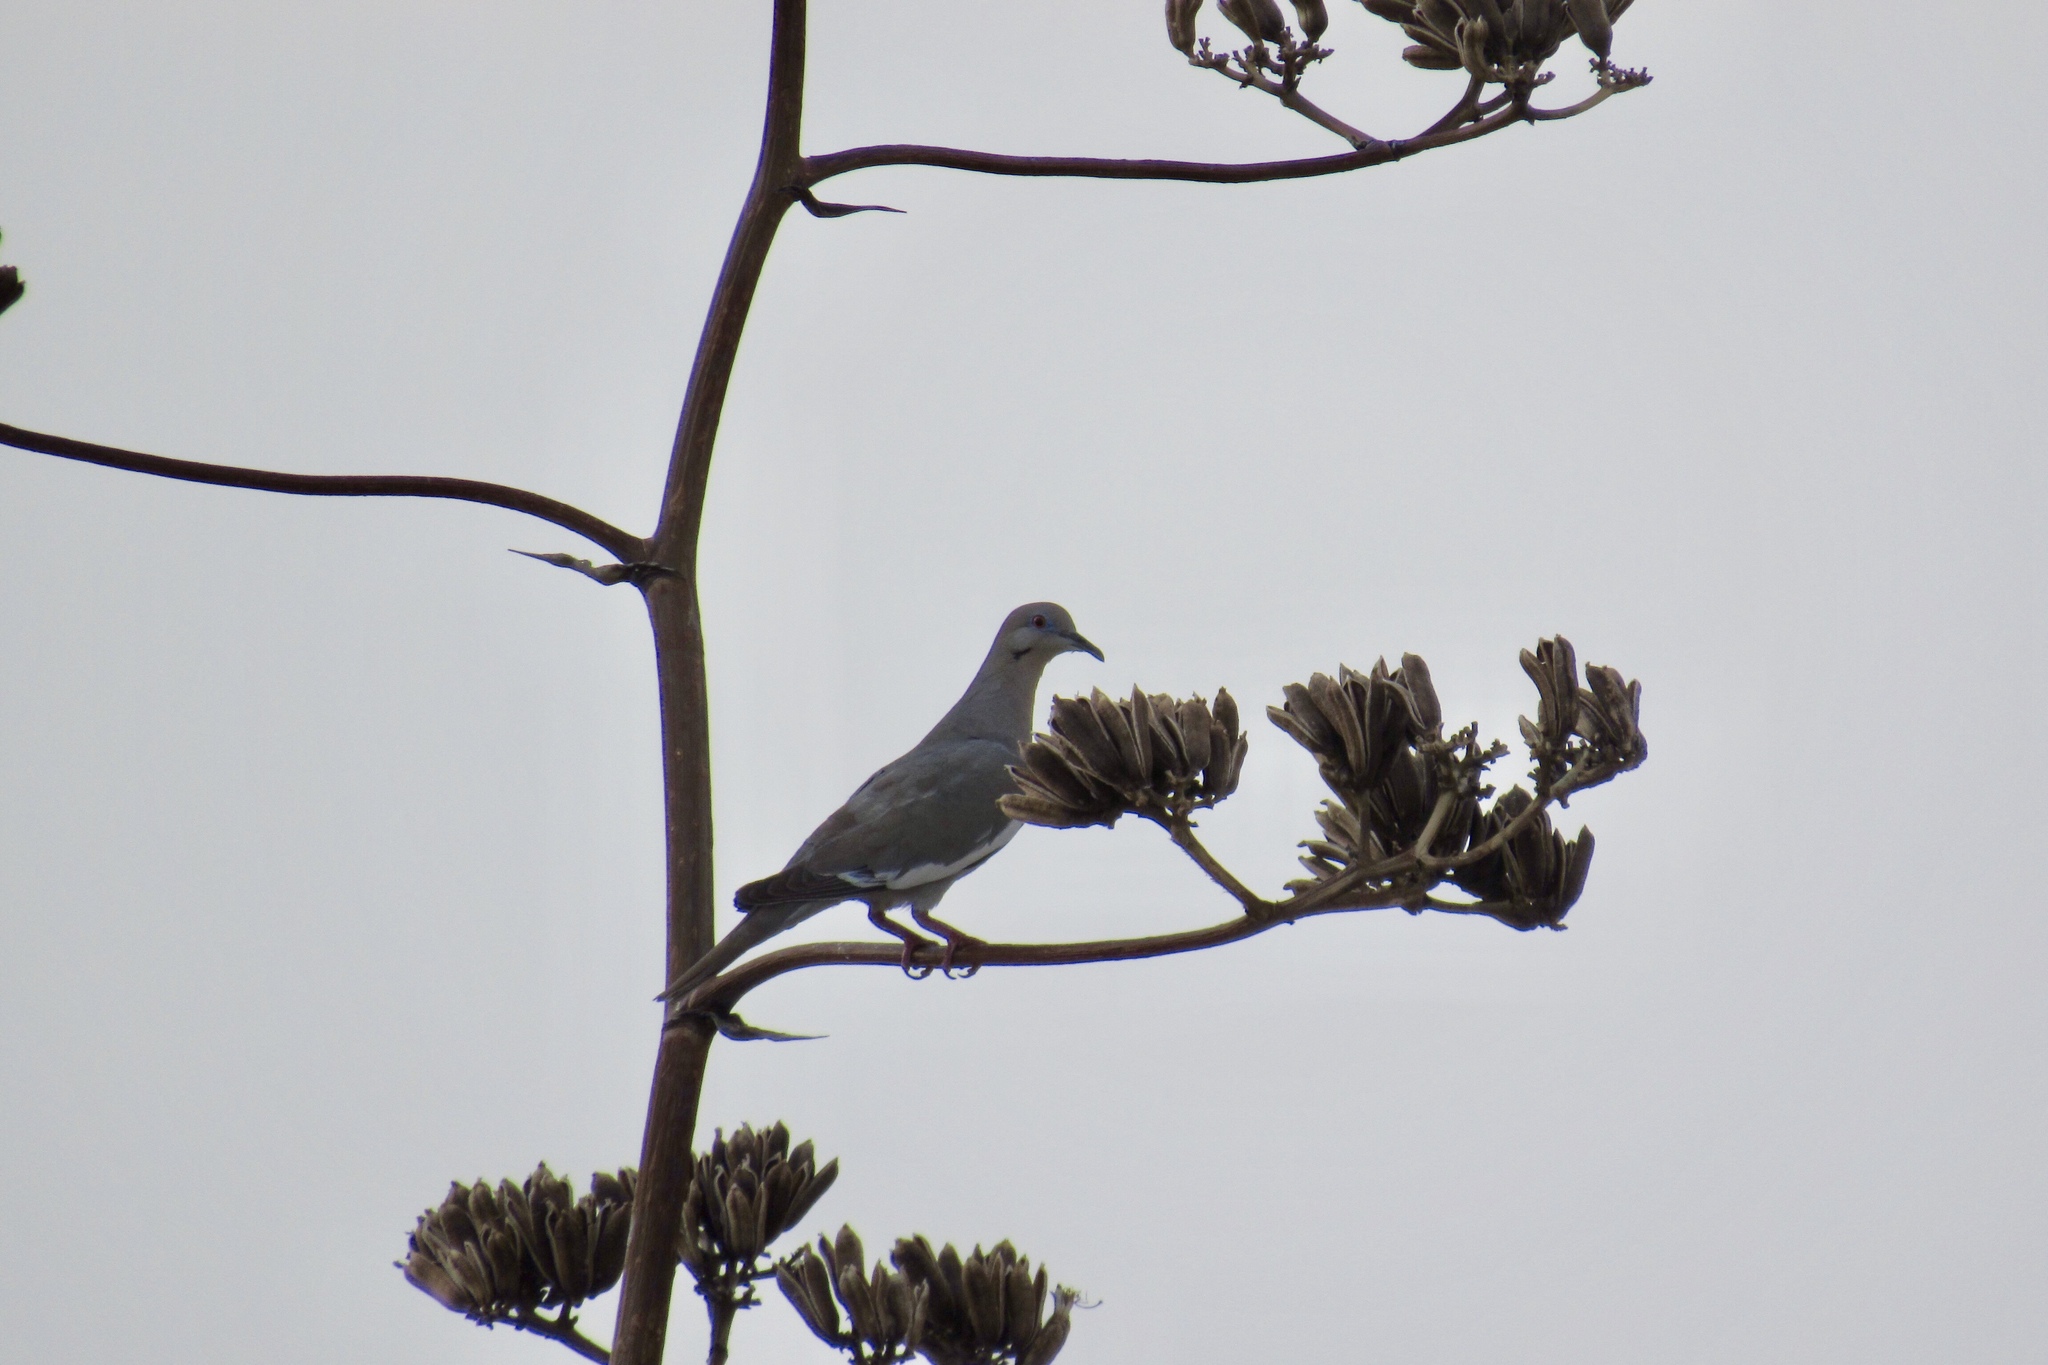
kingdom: Animalia
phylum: Chordata
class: Aves
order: Columbiformes
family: Columbidae
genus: Zenaida
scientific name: Zenaida asiatica
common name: White-winged dove
